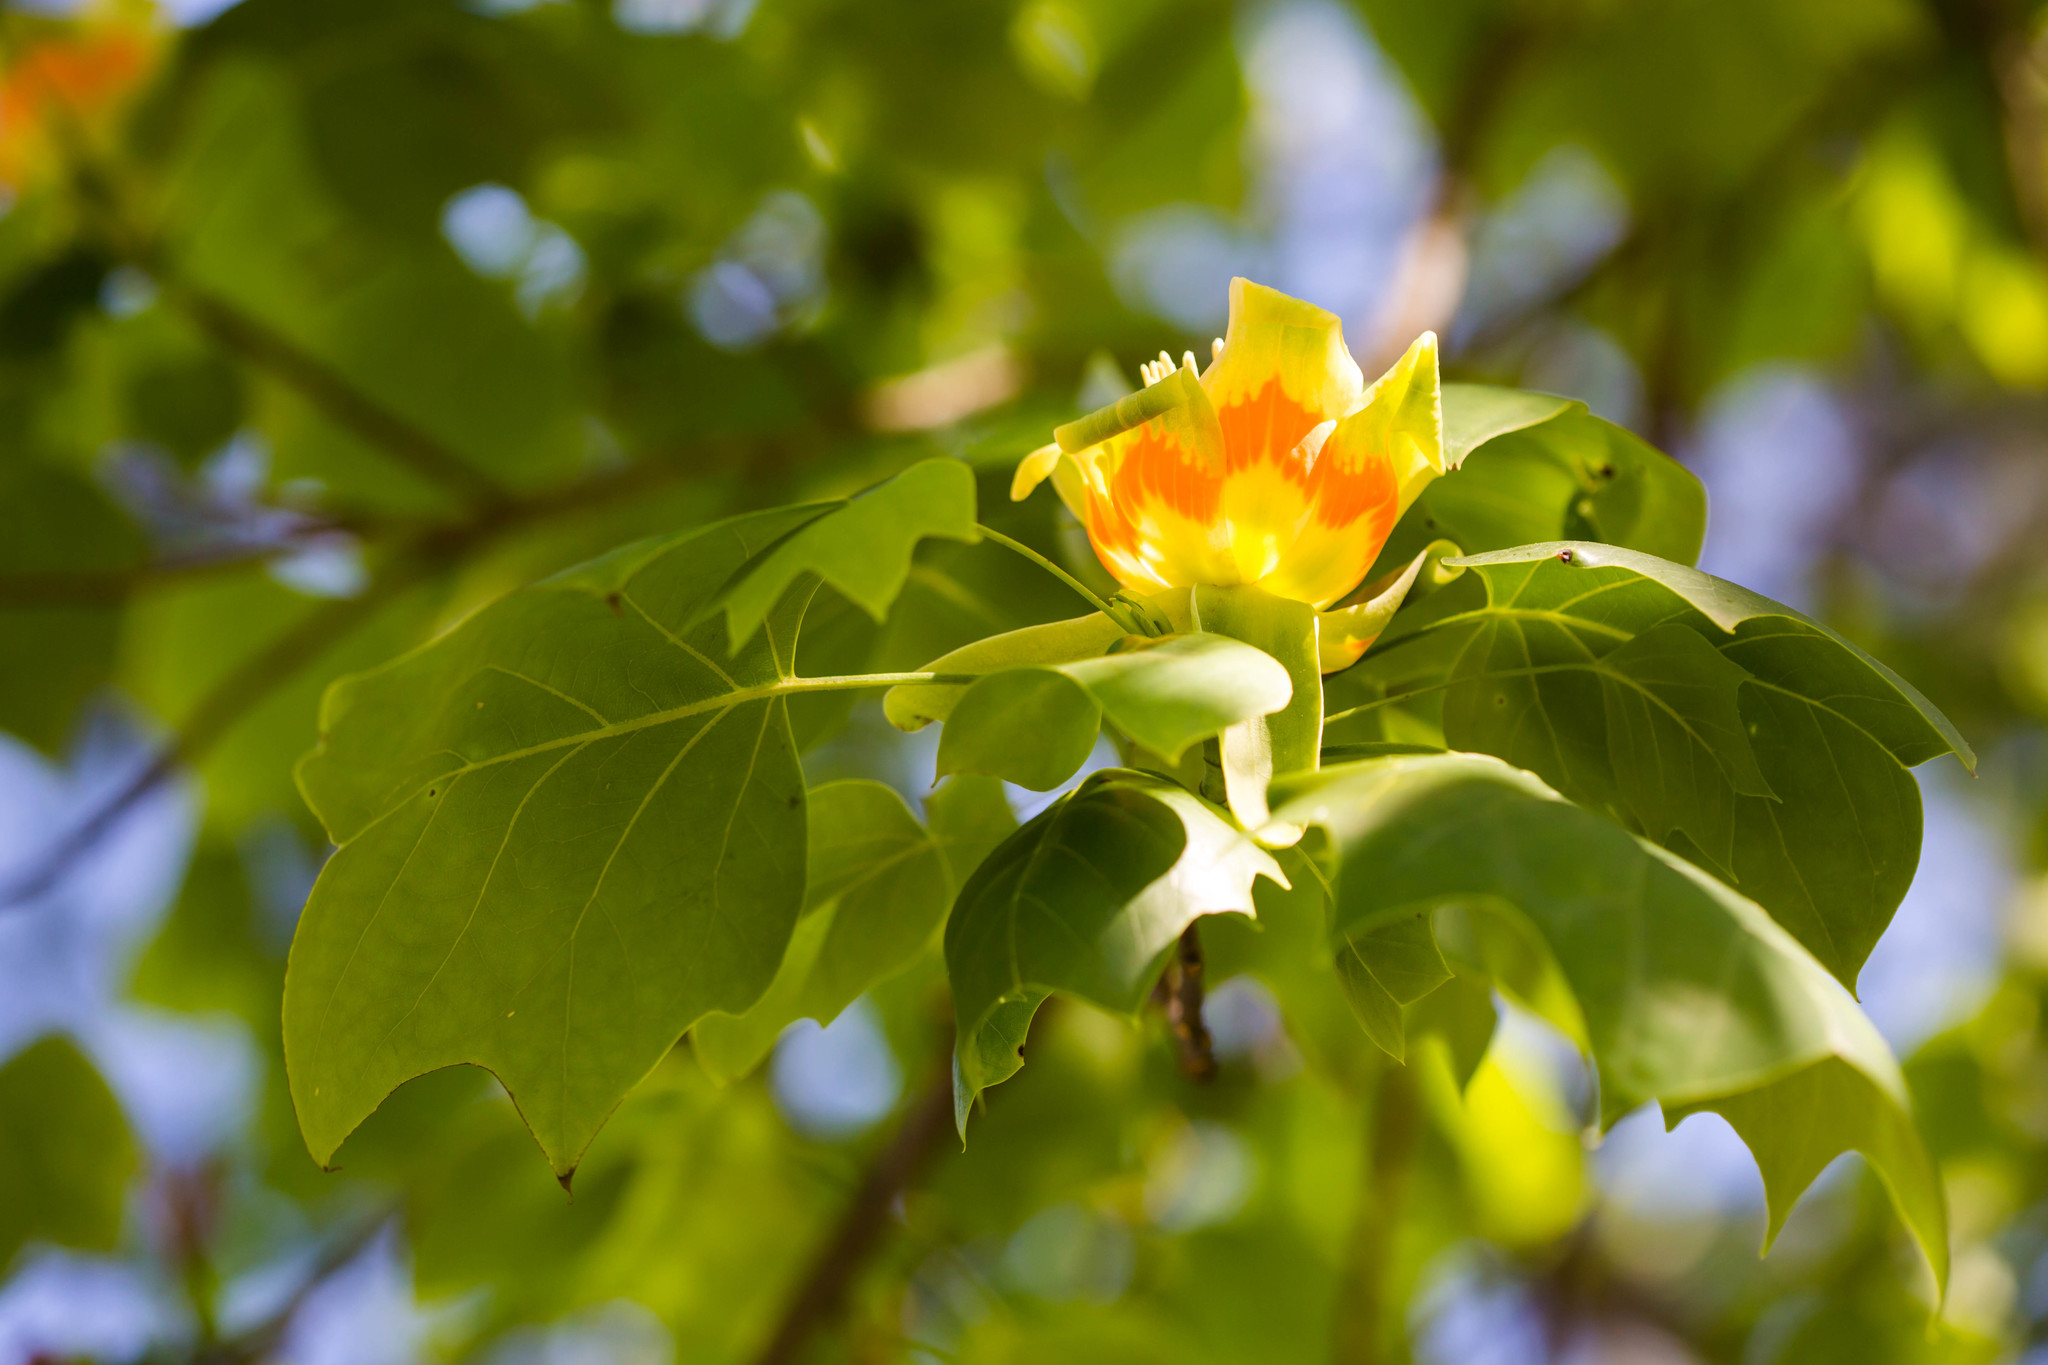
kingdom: Plantae
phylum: Tracheophyta
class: Magnoliopsida
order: Magnoliales
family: Magnoliaceae
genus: Liriodendron
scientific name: Liriodendron tulipifera
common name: Tulip tree
